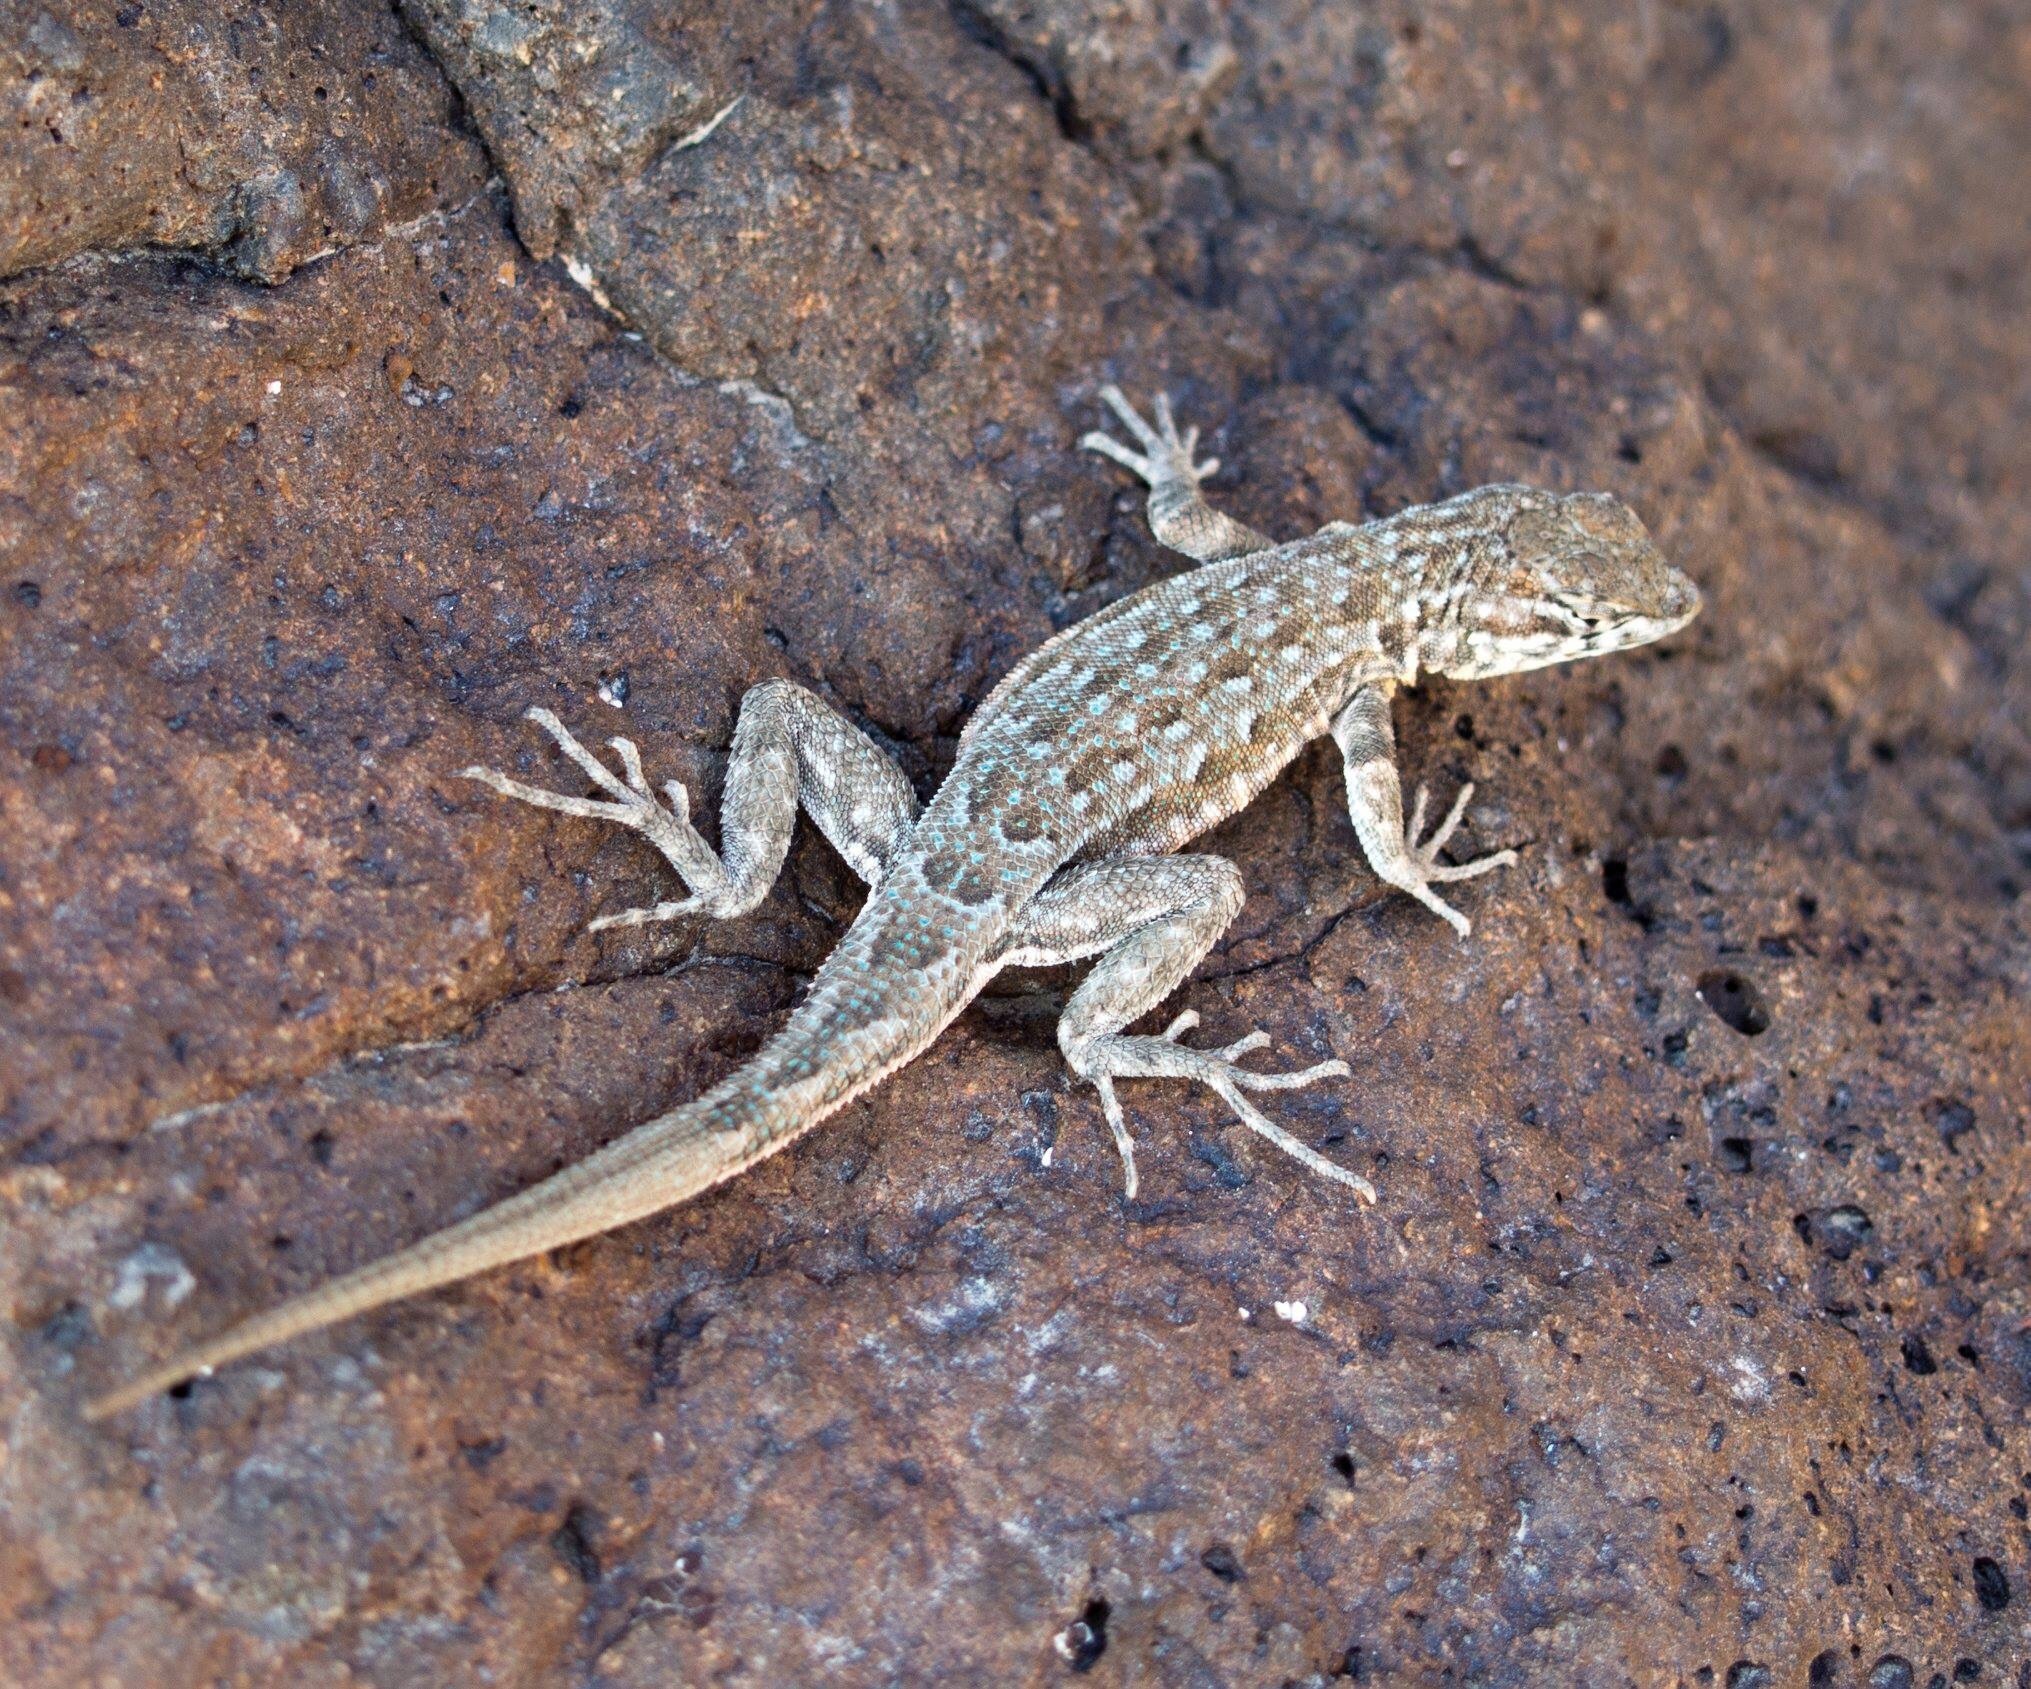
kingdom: Animalia
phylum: Chordata
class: Squamata
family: Phrynosomatidae
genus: Uta
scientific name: Uta stansburiana
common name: Side-blotched lizard
